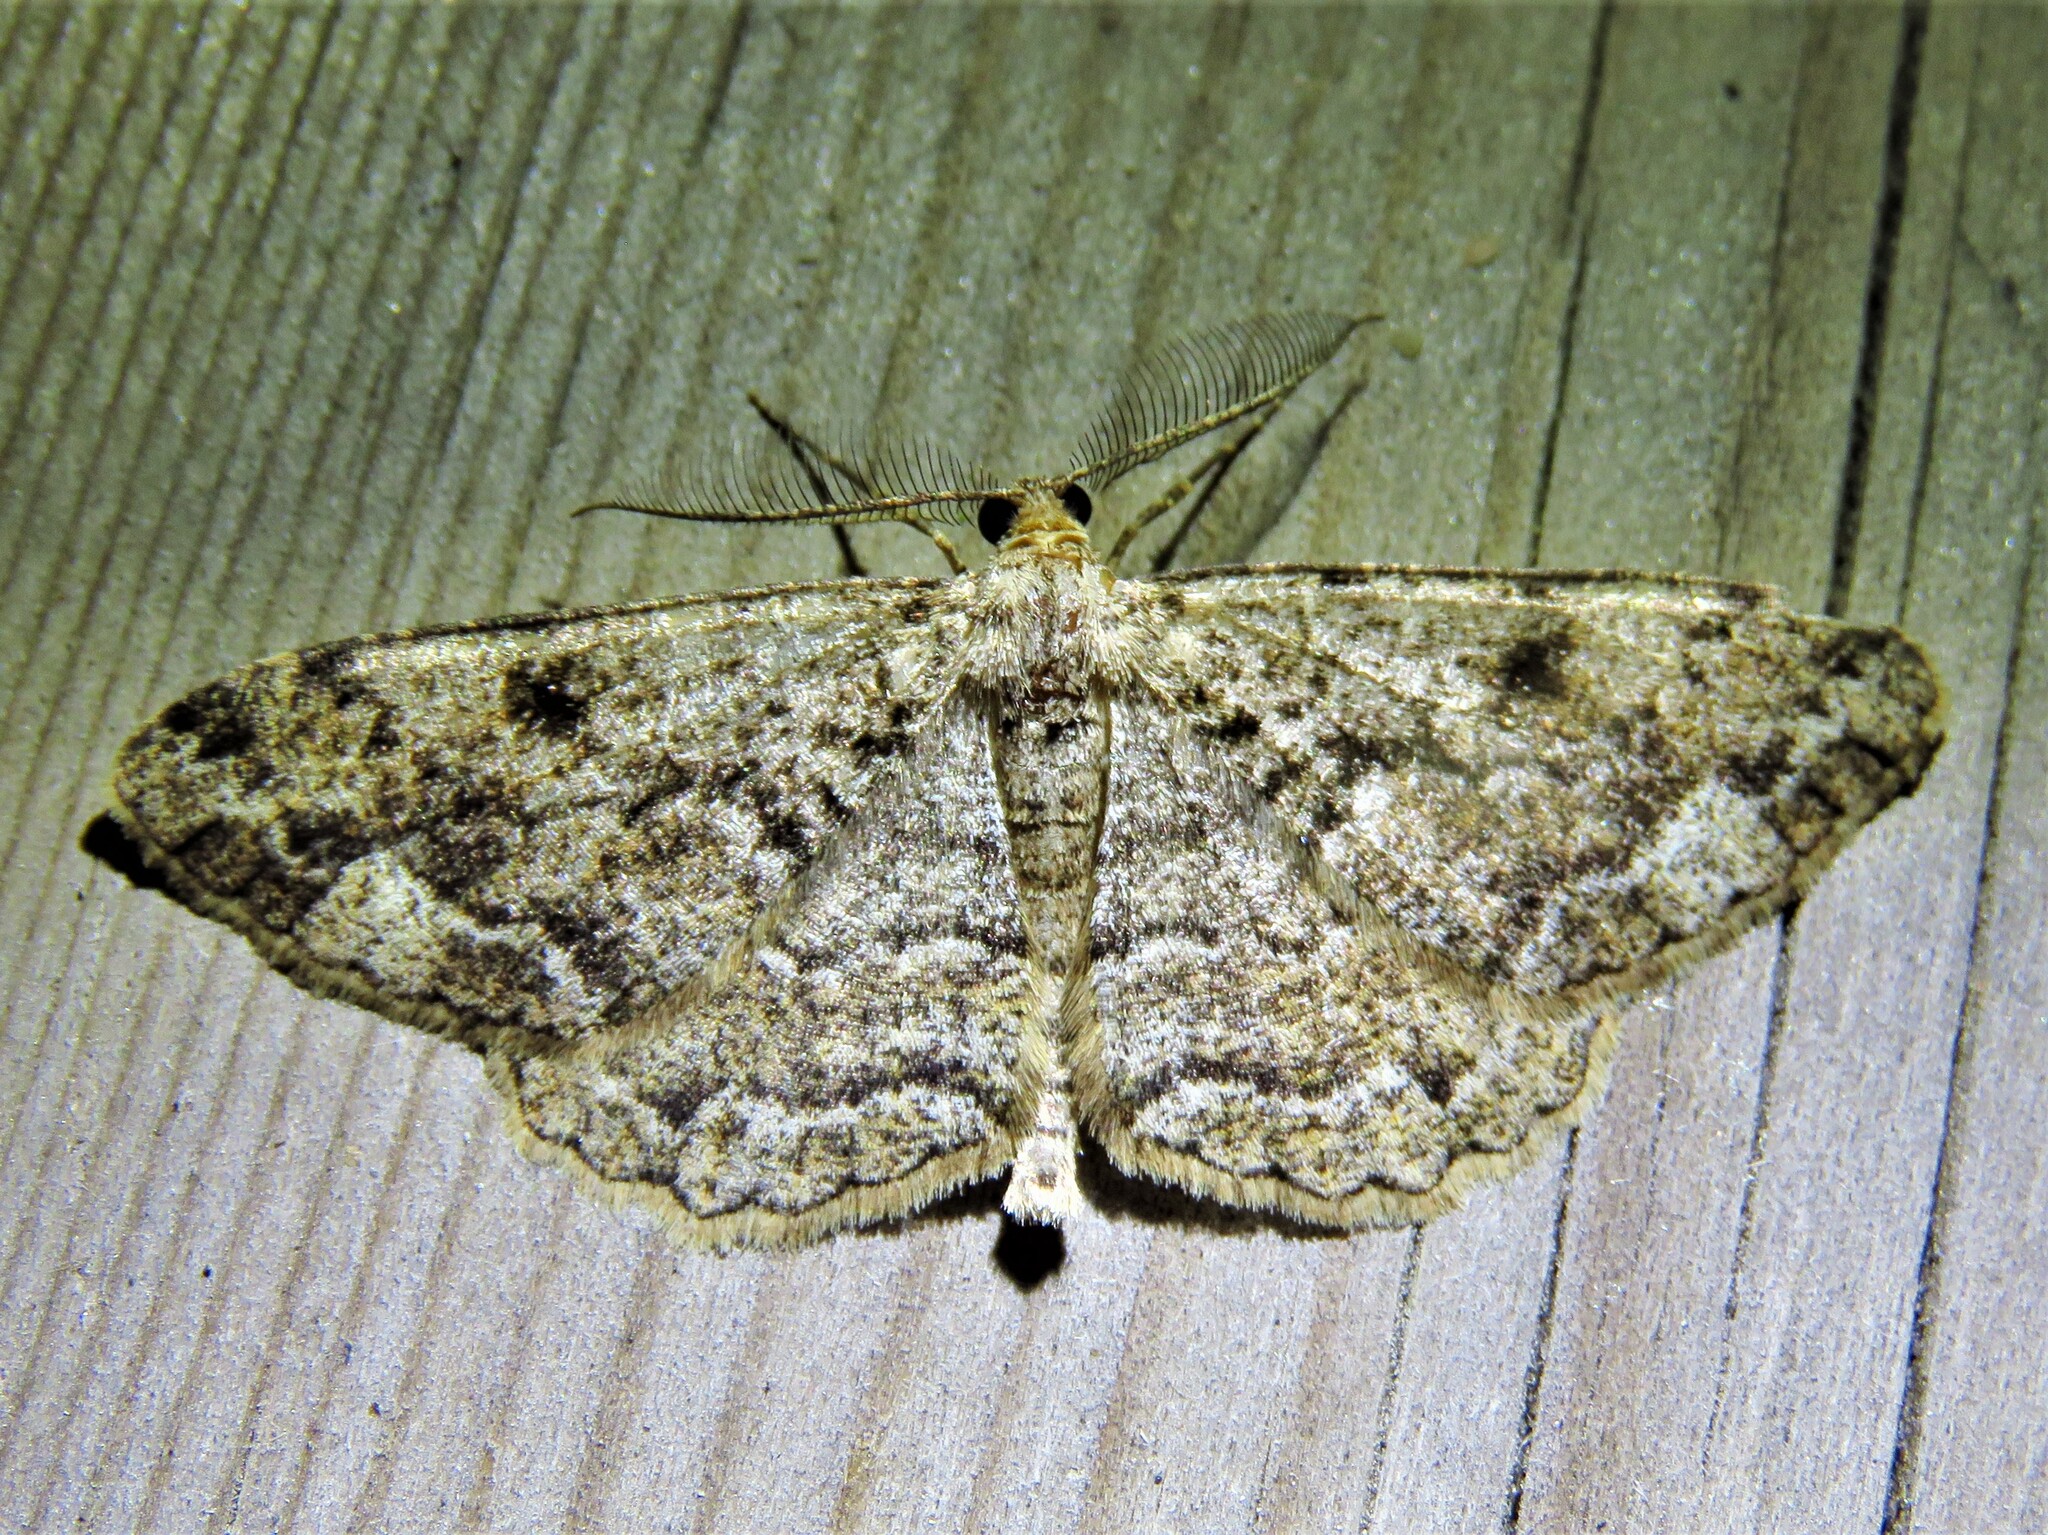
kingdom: Animalia
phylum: Arthropoda
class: Insecta
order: Lepidoptera
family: Geometridae
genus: Peribatodes
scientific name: Peribatodes secundaria
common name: Feathered beauty
